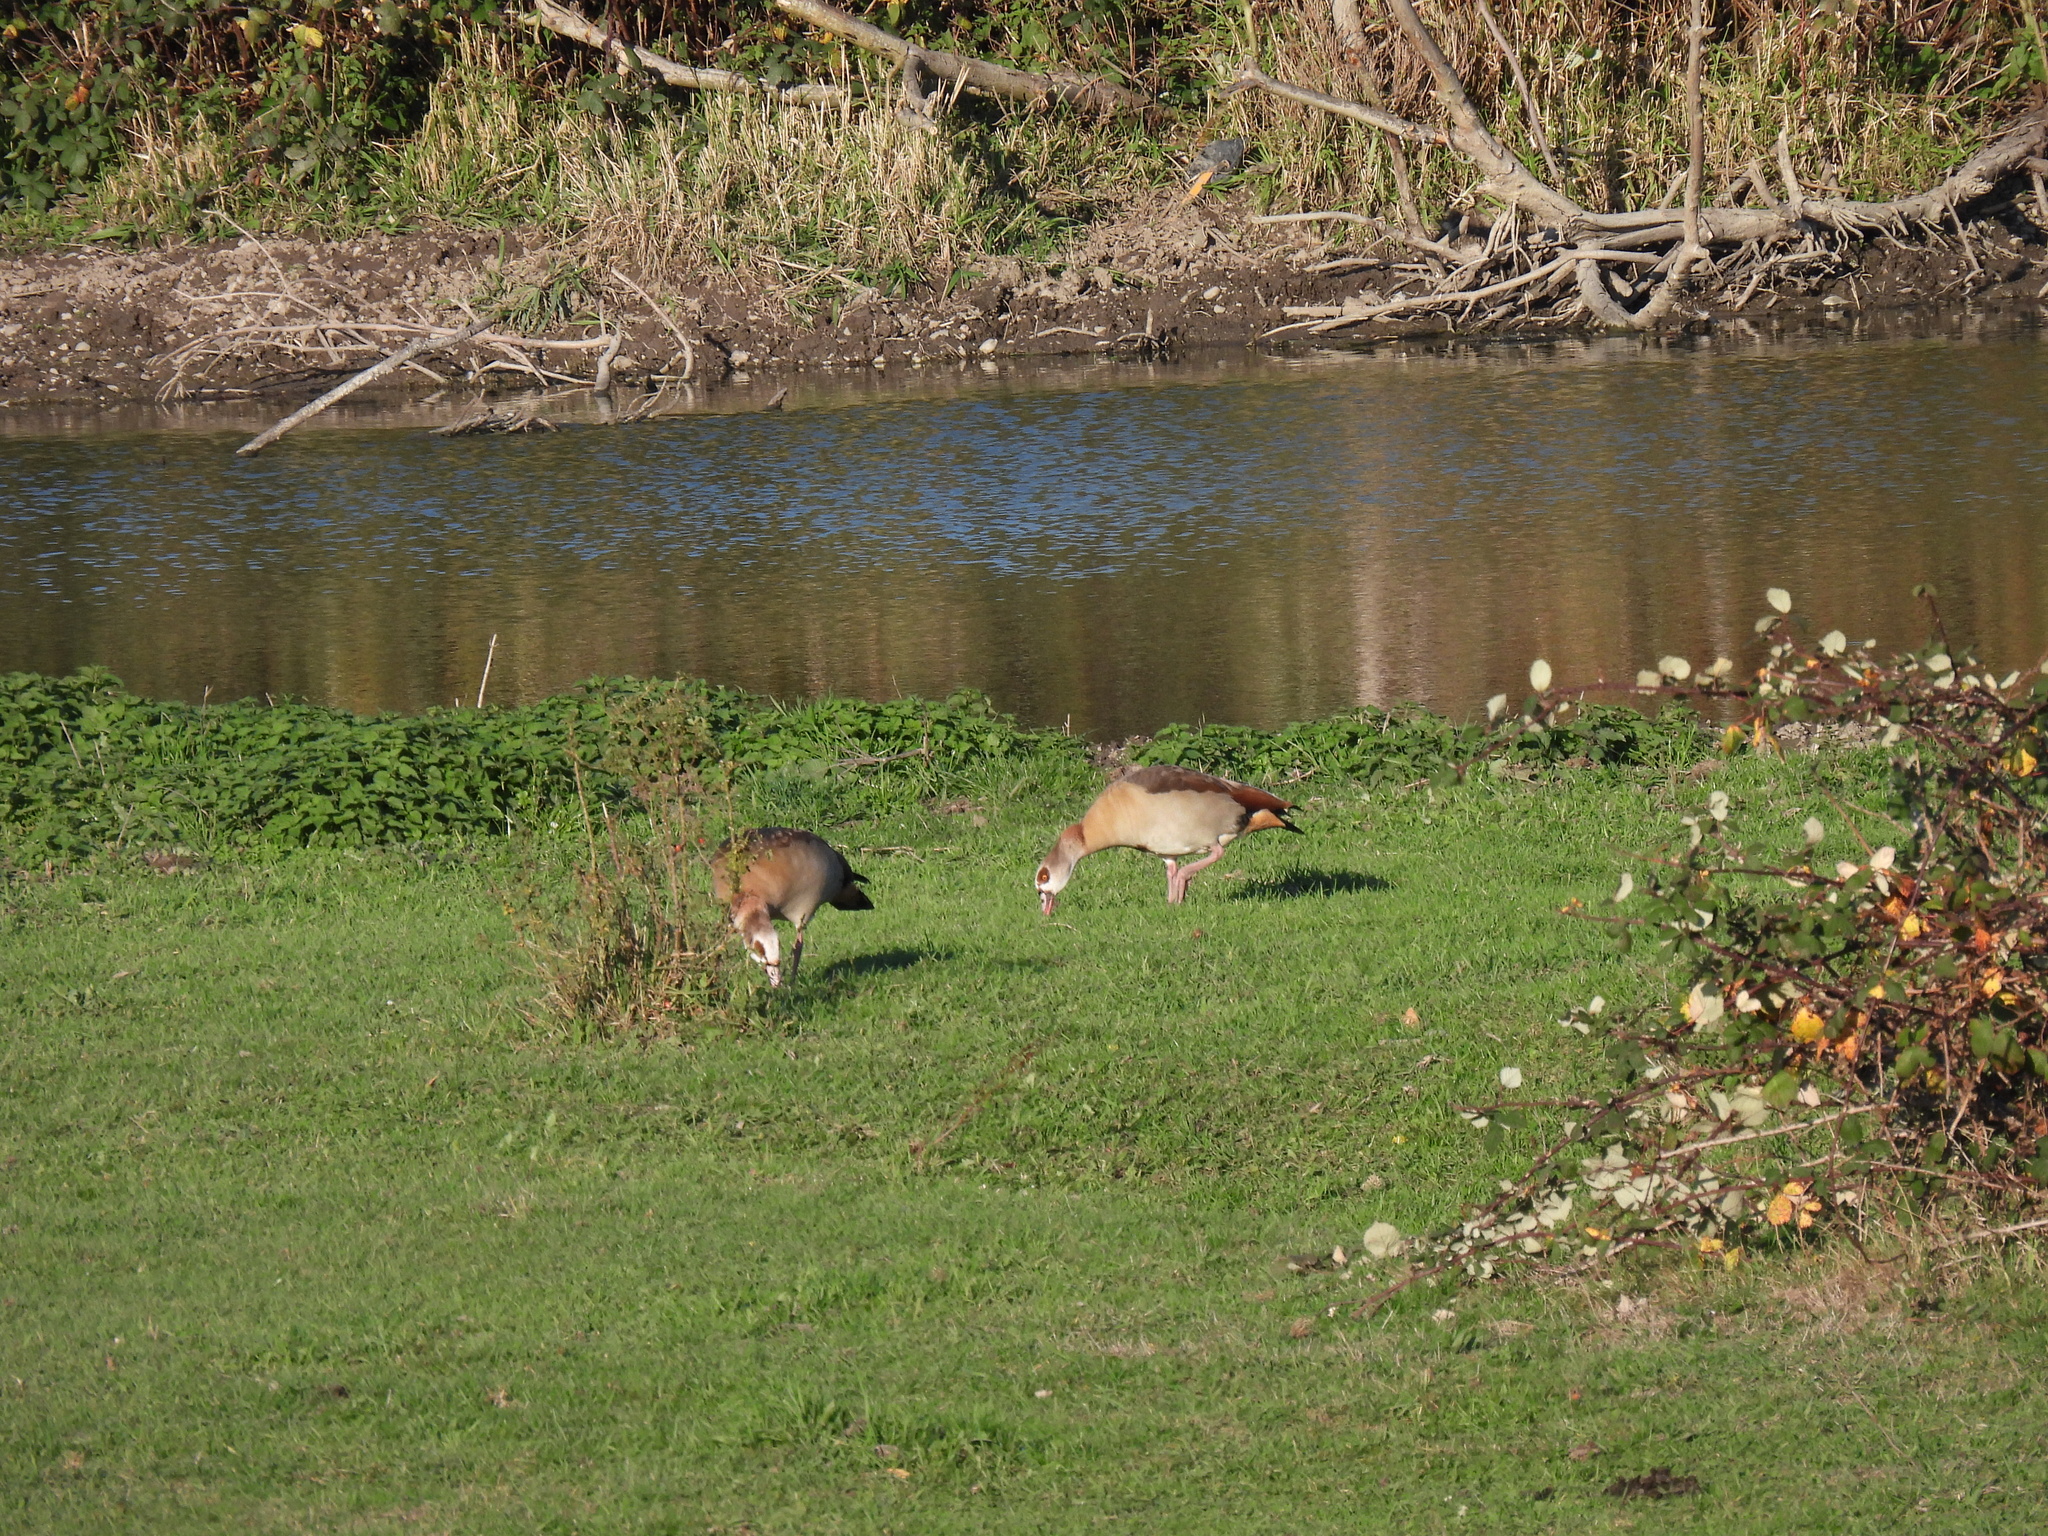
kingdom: Animalia
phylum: Chordata
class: Aves
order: Anseriformes
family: Anatidae
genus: Alopochen
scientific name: Alopochen aegyptiaca
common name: Egyptian goose
